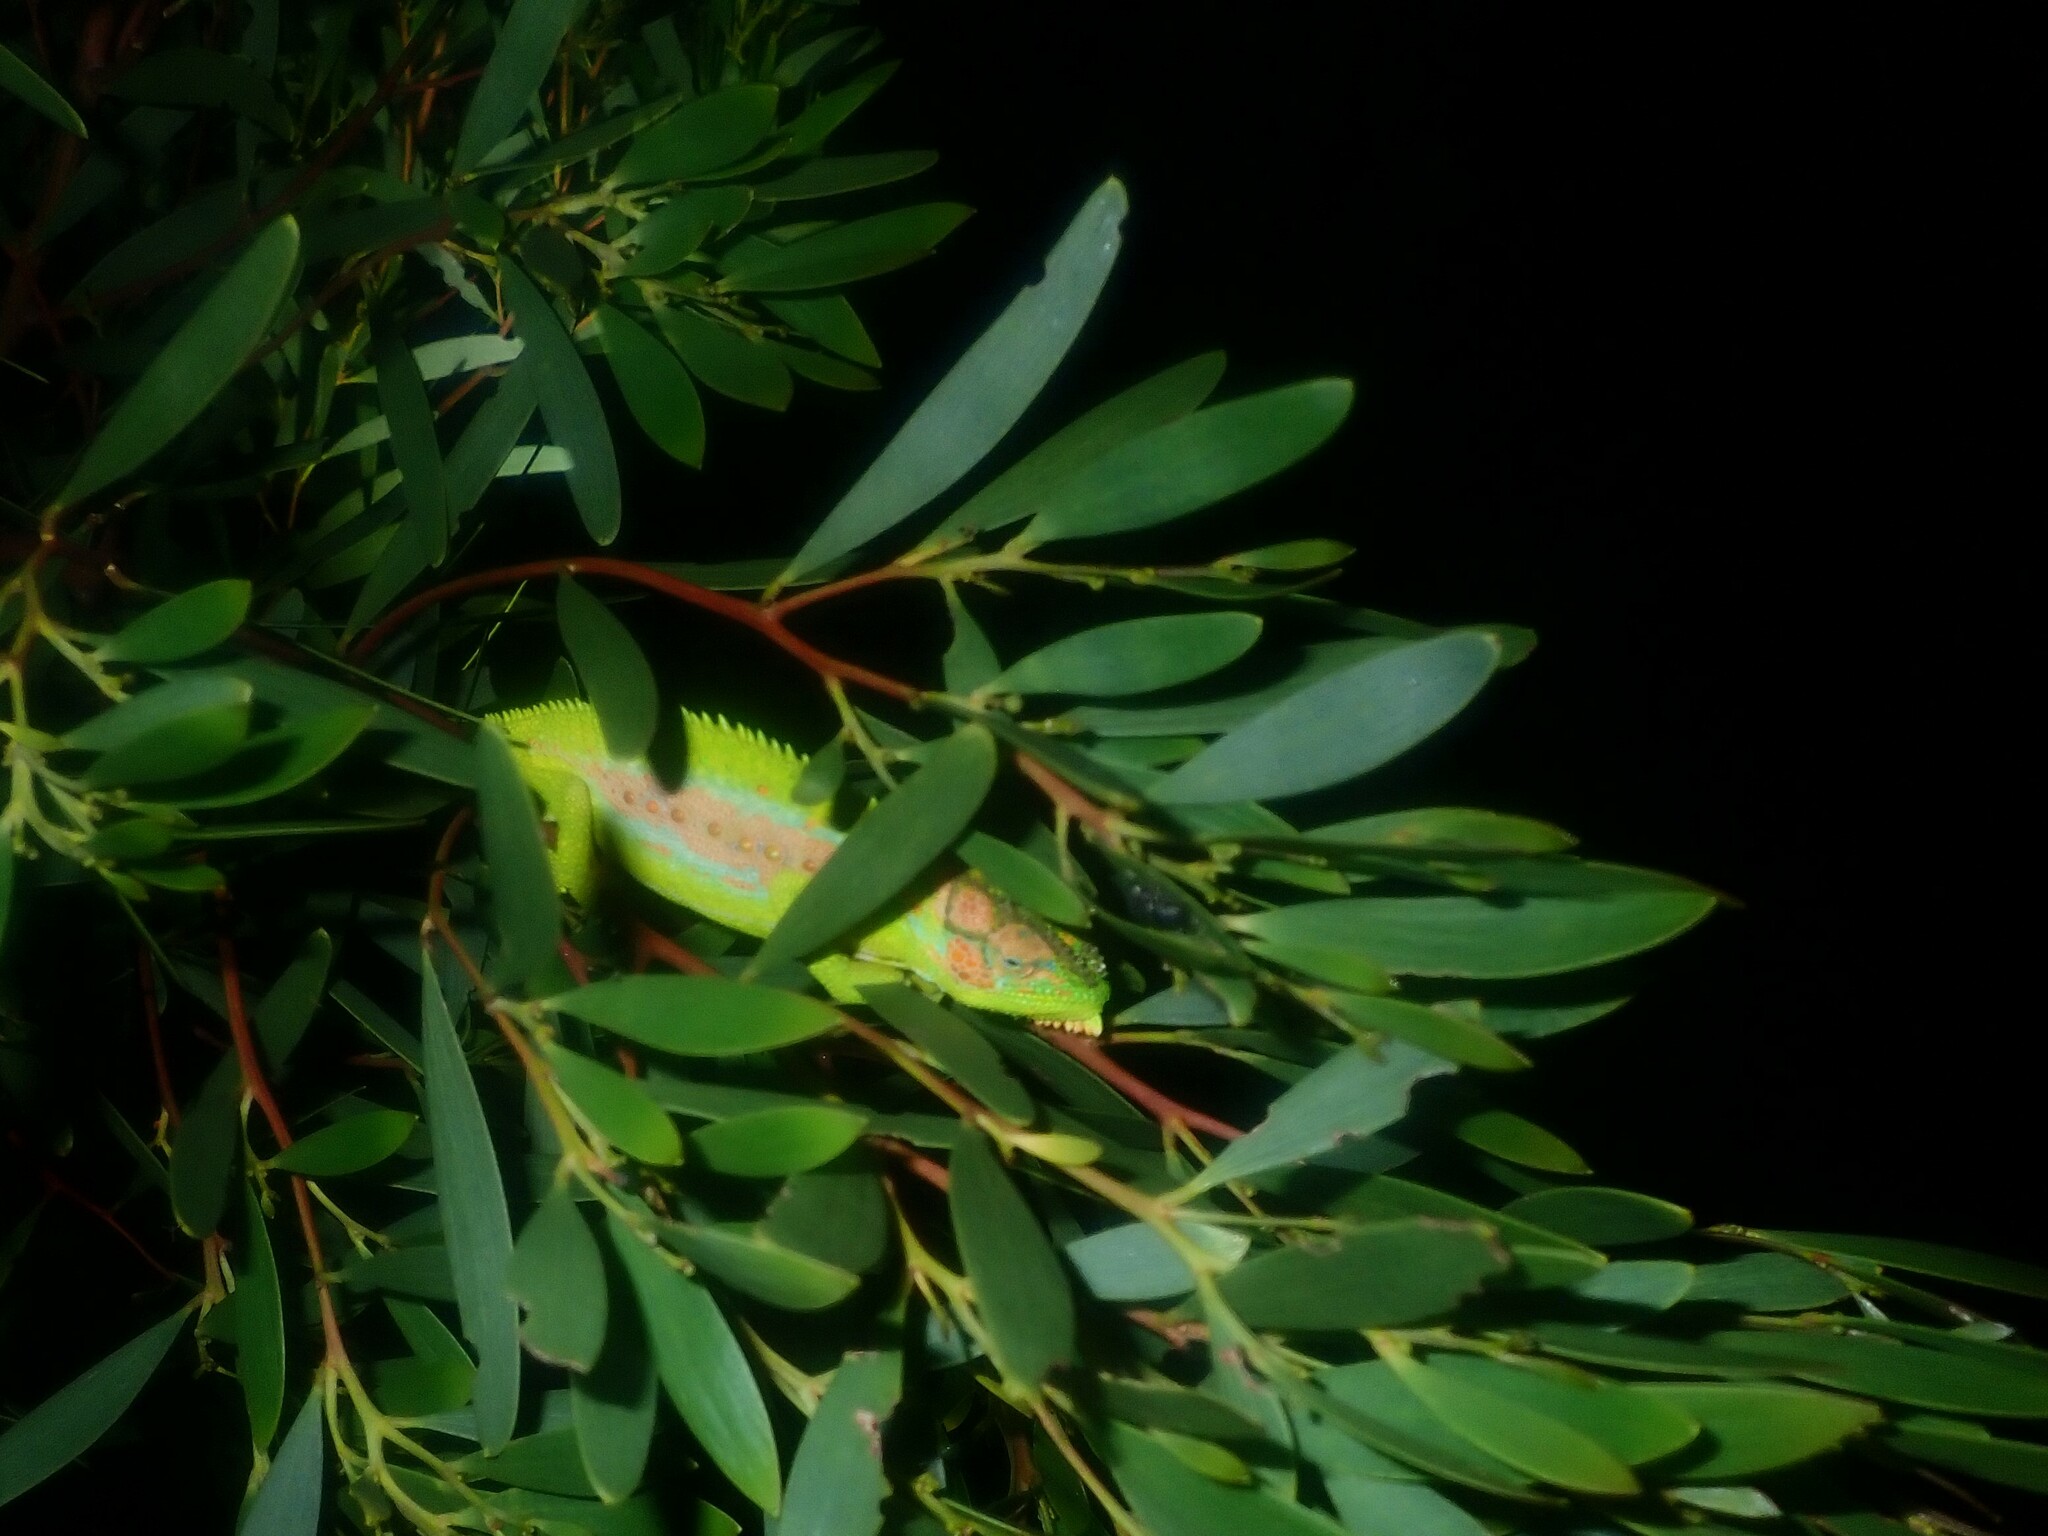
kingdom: Animalia
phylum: Chordata
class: Squamata
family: Chamaeleonidae
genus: Bradypodion
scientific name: Bradypodion pumilum
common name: Cape dwarf chameleon
